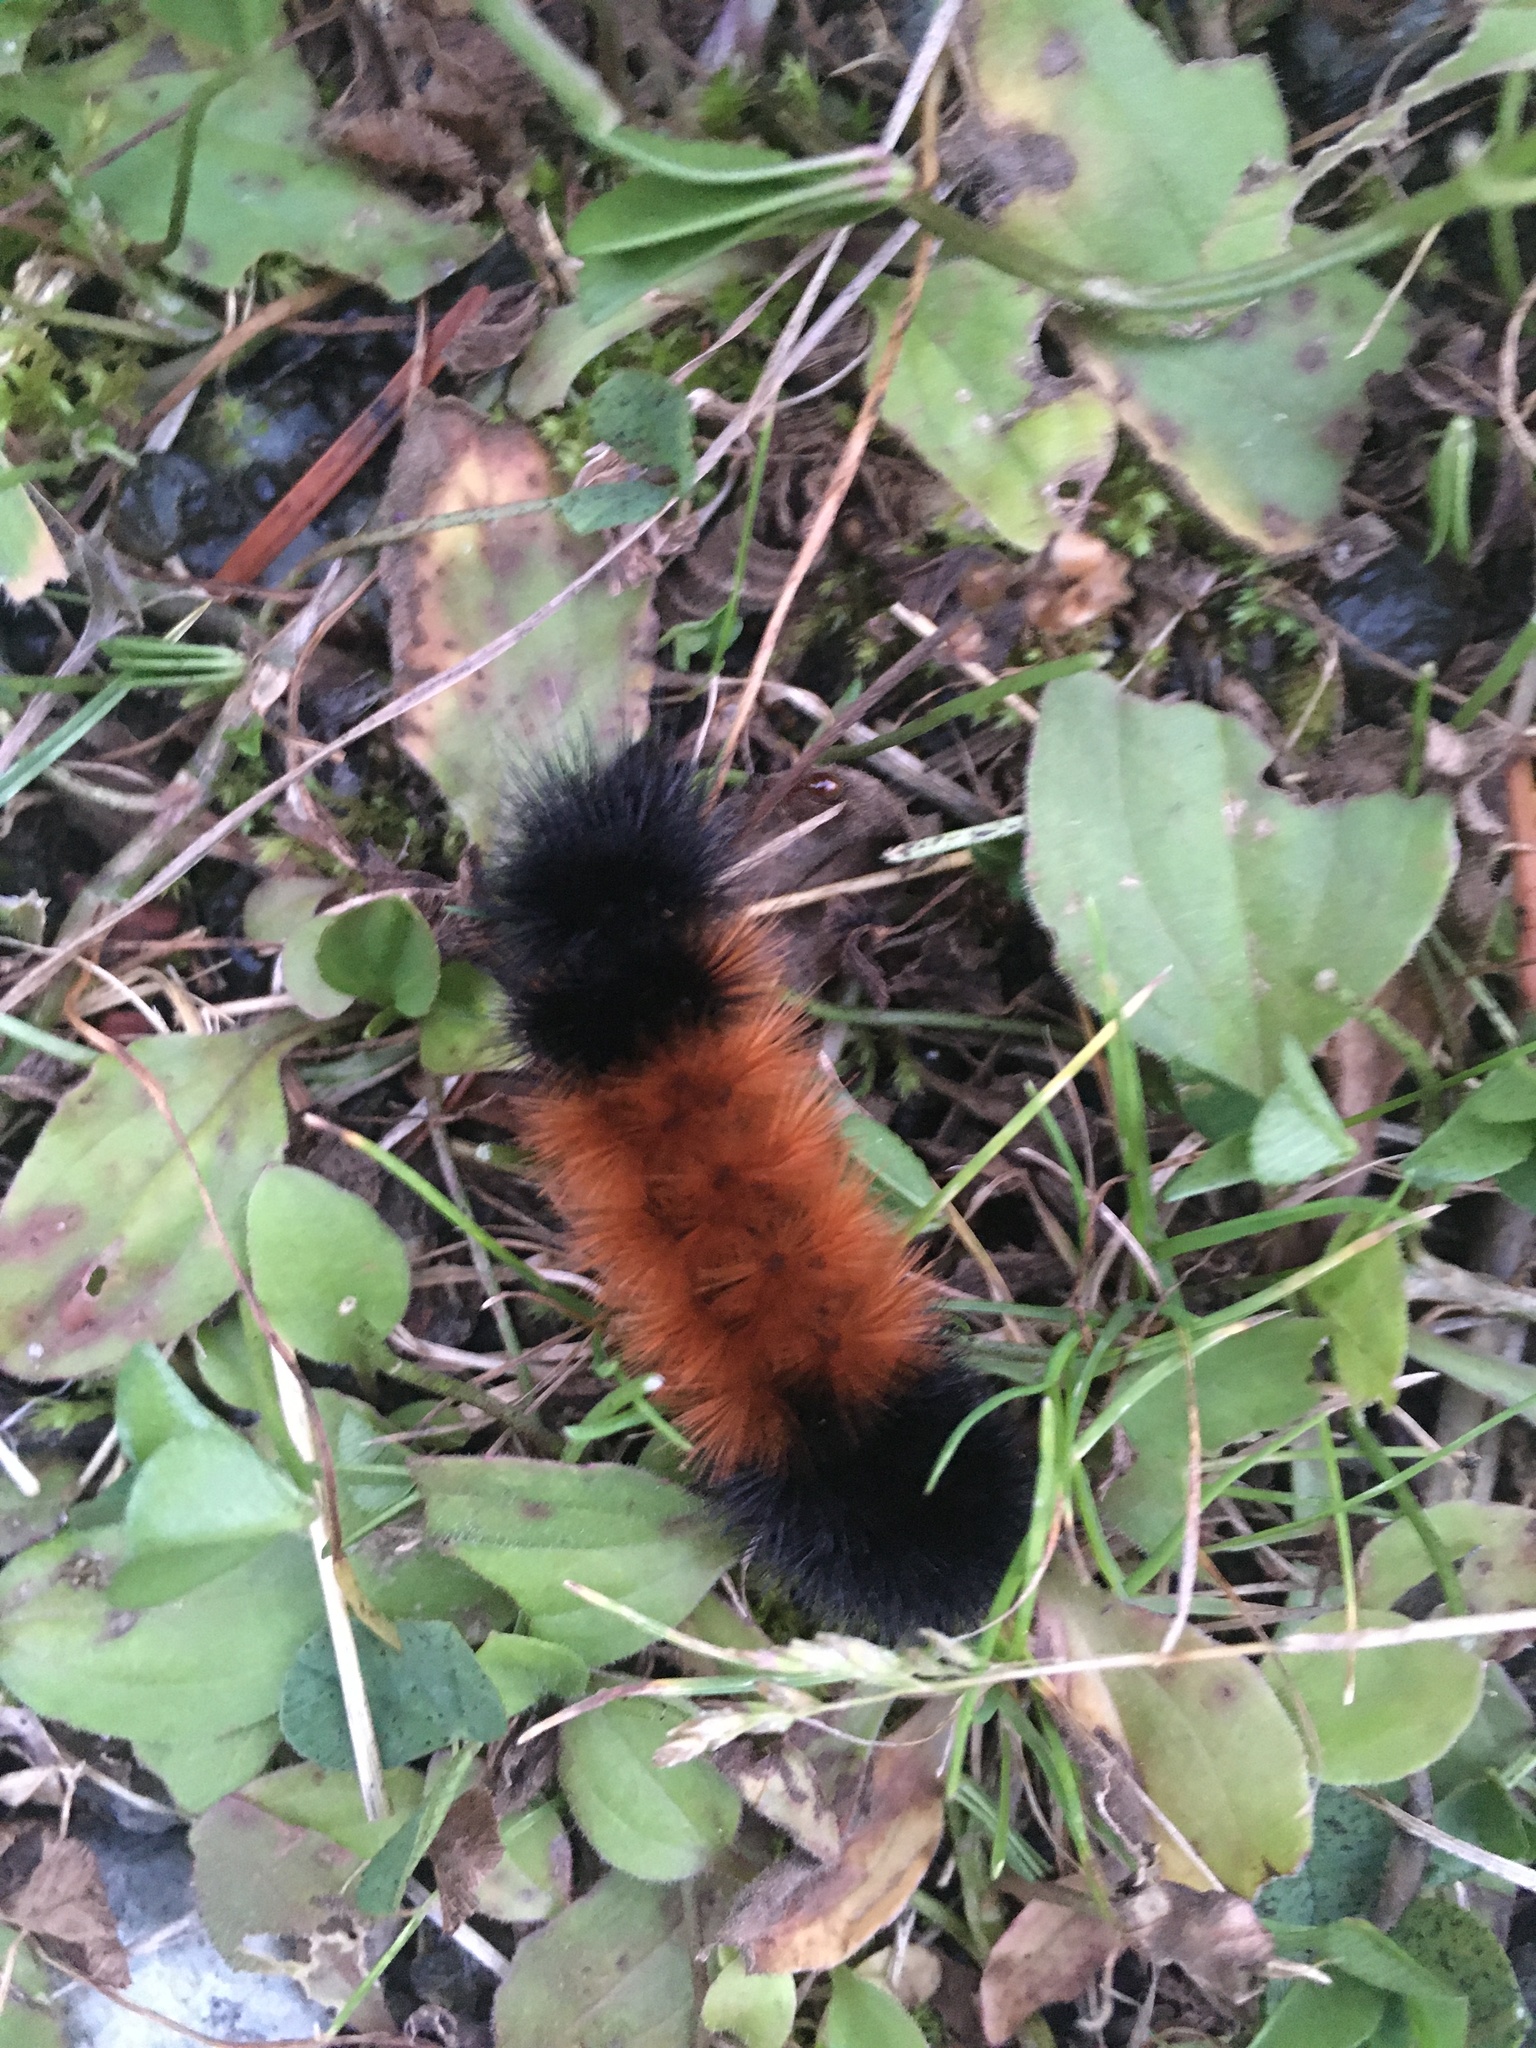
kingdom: Animalia
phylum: Arthropoda
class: Insecta
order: Lepidoptera
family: Erebidae
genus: Pyrrharctia
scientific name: Pyrrharctia isabella
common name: Isabella tiger moth
